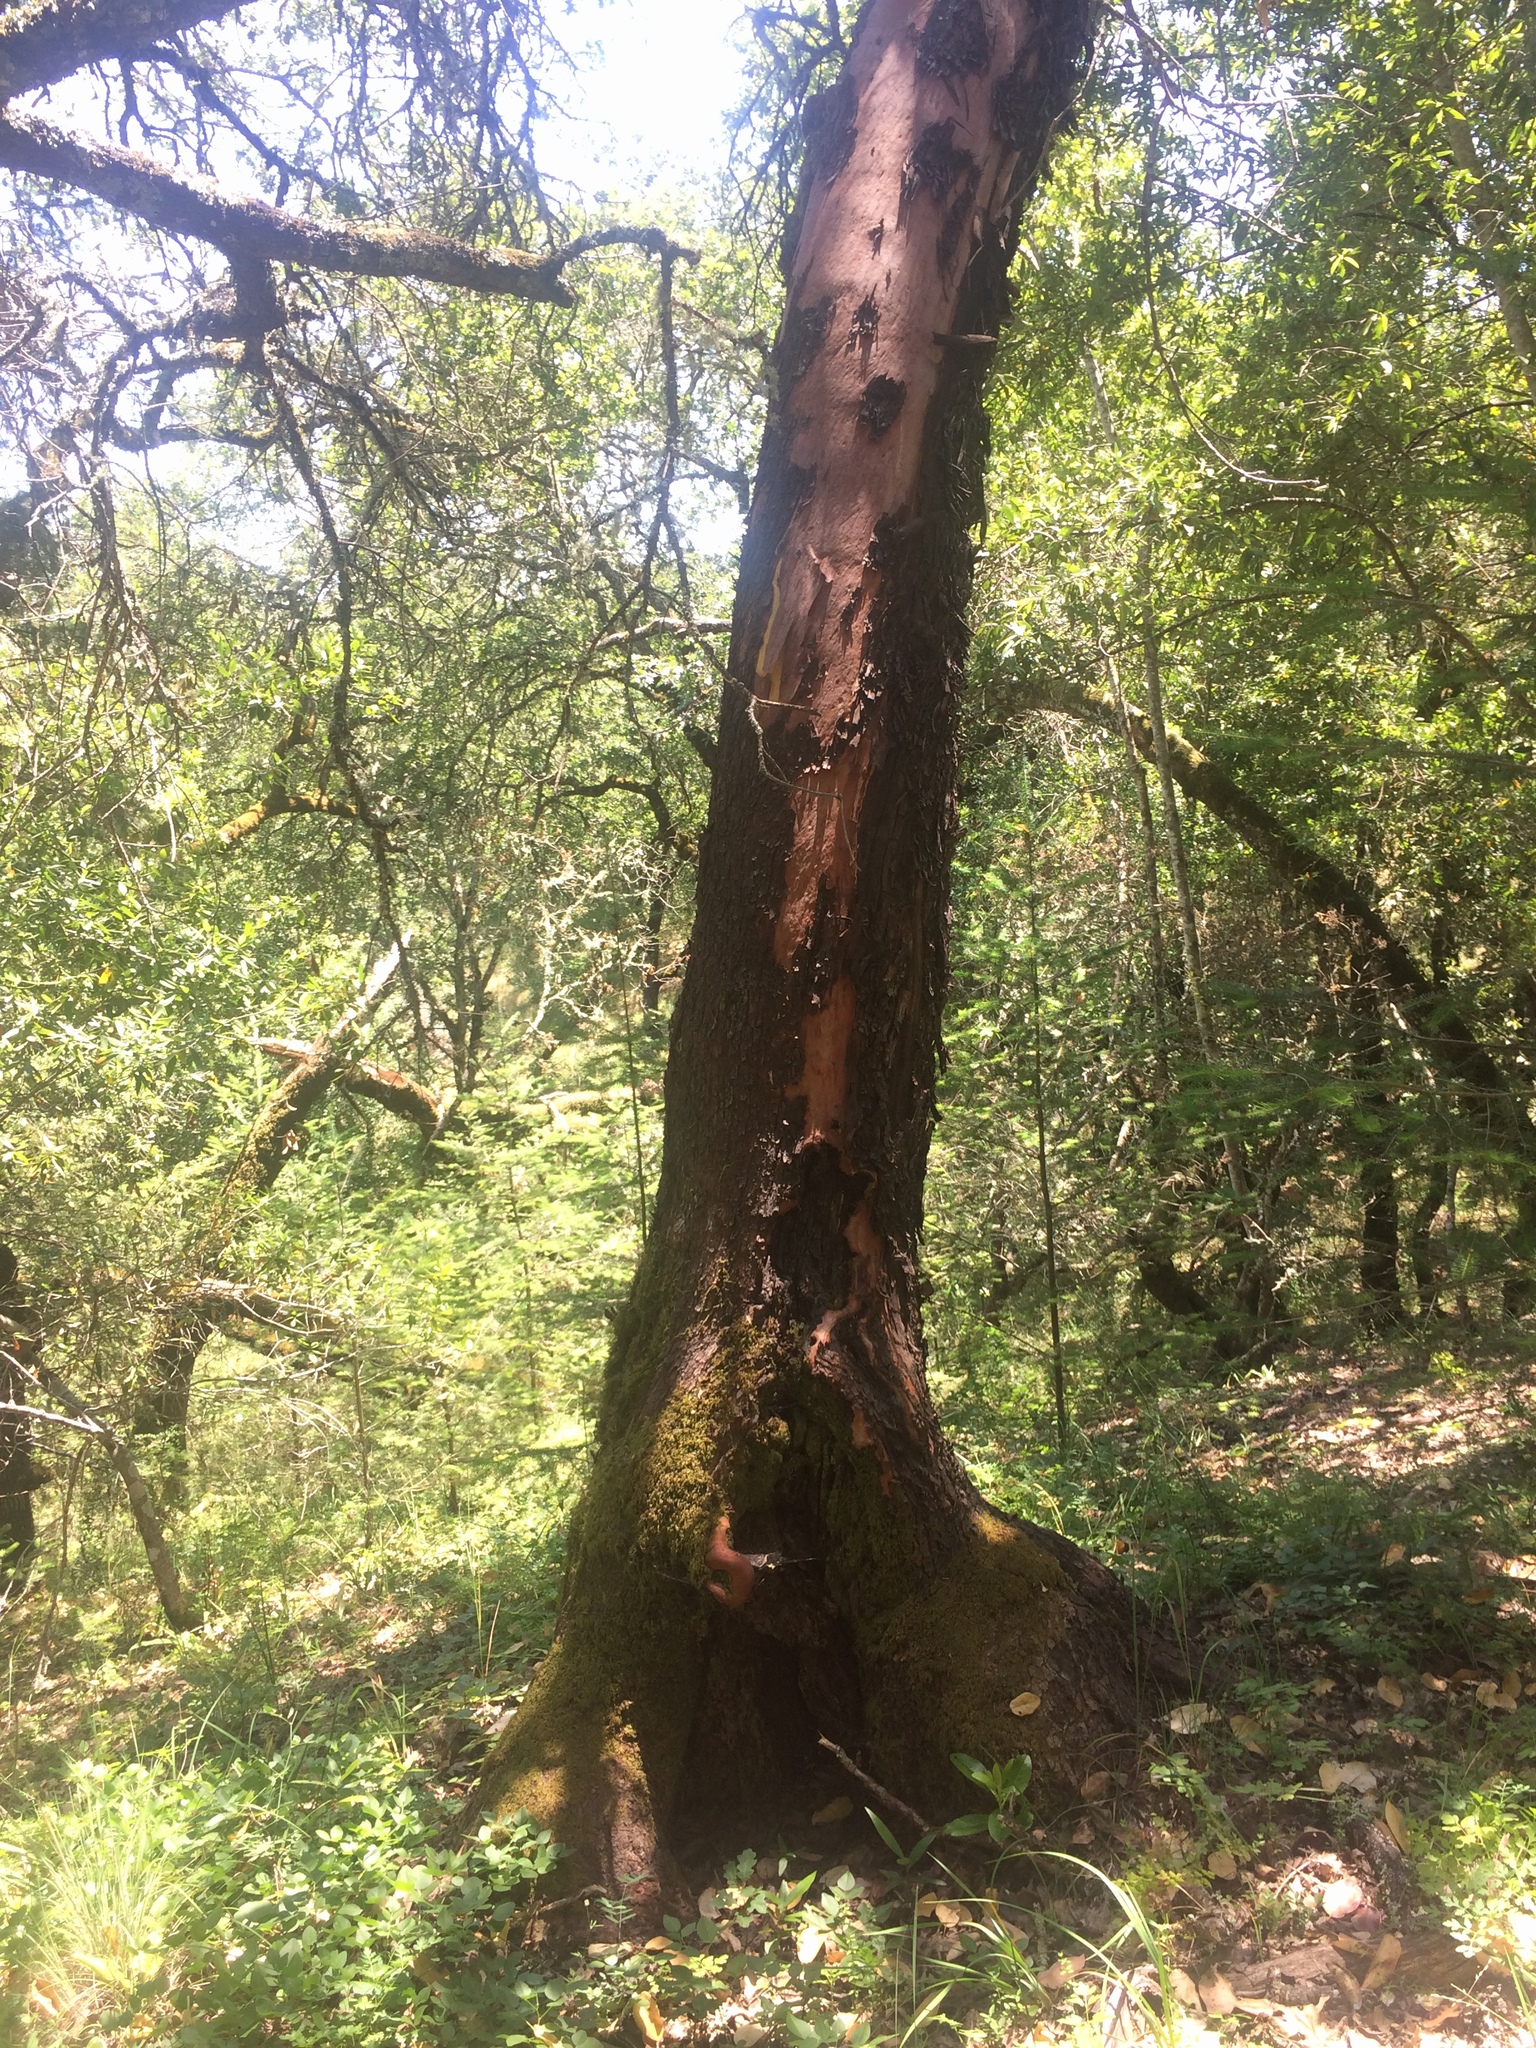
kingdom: Plantae
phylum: Tracheophyta
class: Magnoliopsida
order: Ericales
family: Ericaceae
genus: Arbutus
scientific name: Arbutus menziesii
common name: Pacific madrone
